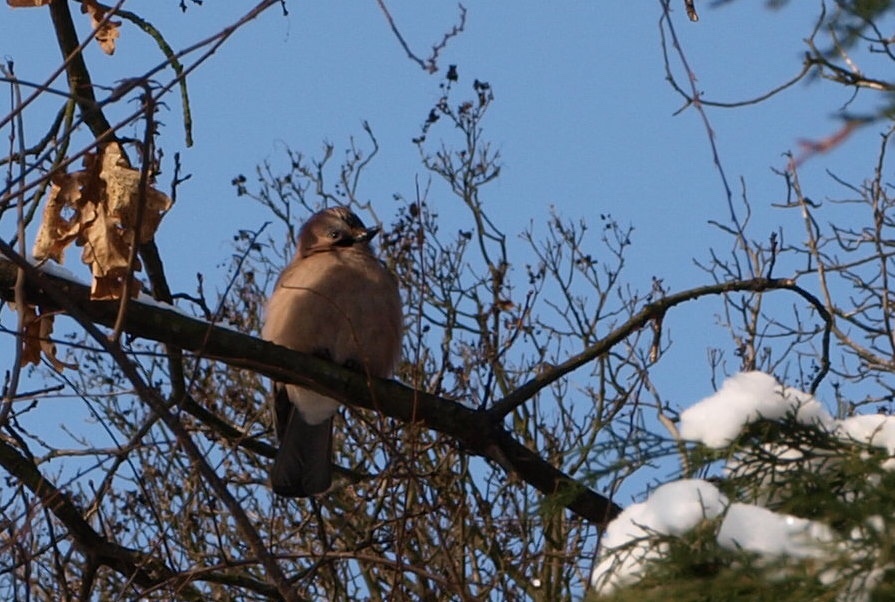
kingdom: Animalia
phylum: Chordata
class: Aves
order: Passeriformes
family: Corvidae
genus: Garrulus
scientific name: Garrulus glandarius
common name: Eurasian jay
